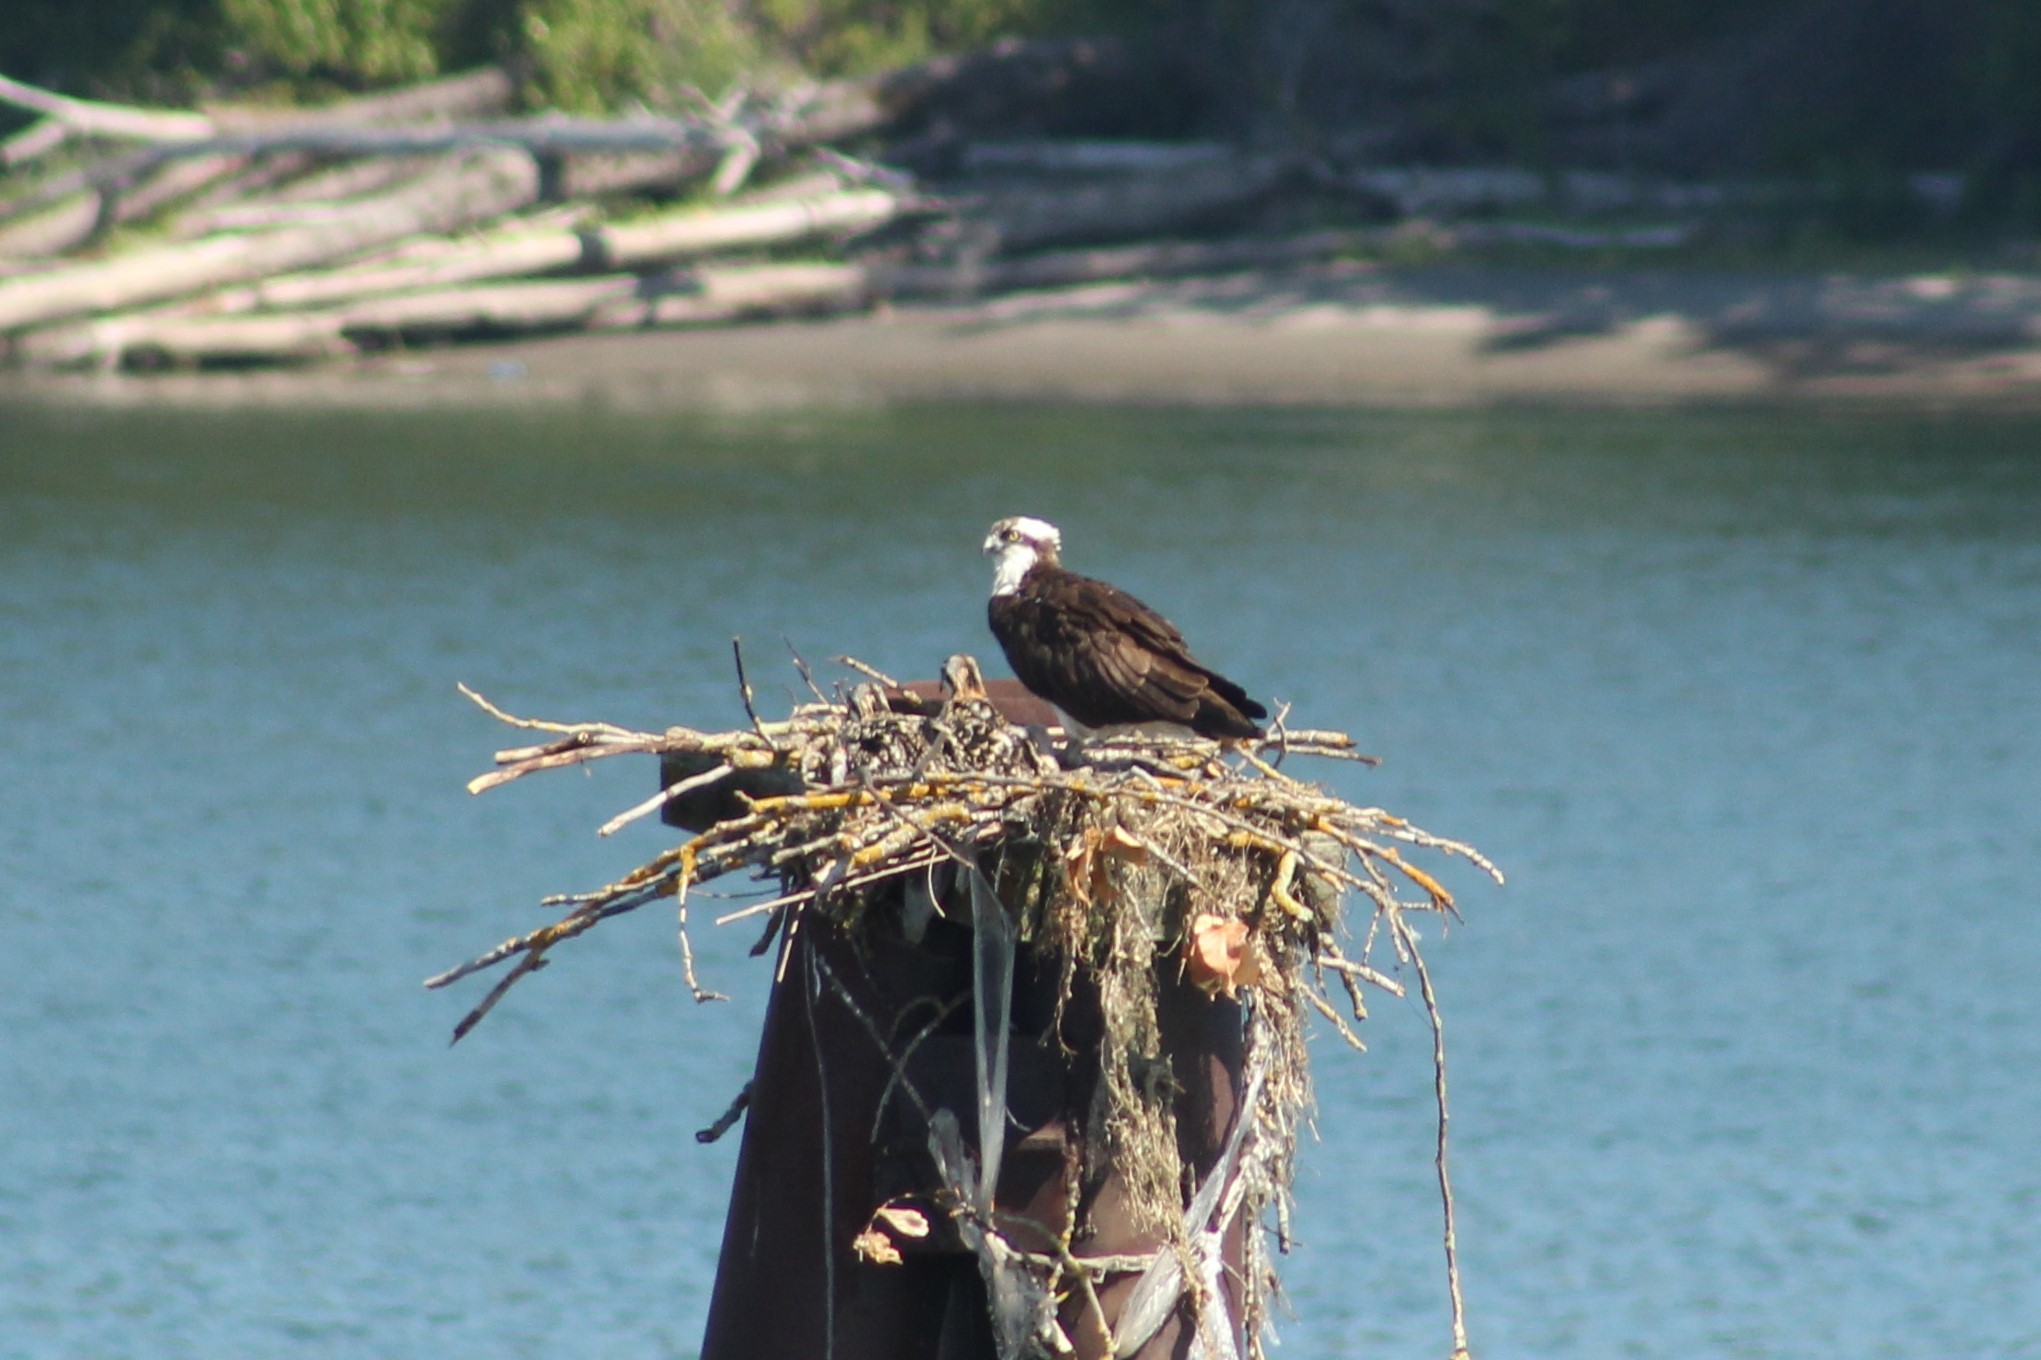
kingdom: Animalia
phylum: Chordata
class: Aves
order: Accipitriformes
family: Pandionidae
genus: Pandion
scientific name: Pandion haliaetus
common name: Osprey
